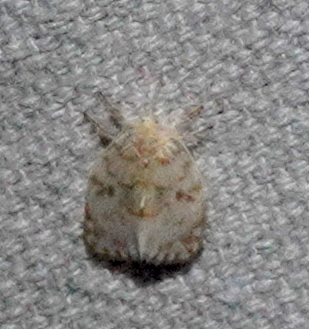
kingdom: Animalia
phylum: Arthropoda
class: Insecta
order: Lepidoptera
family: Erebidae
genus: Chamaita
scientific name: Chamaita nympha
